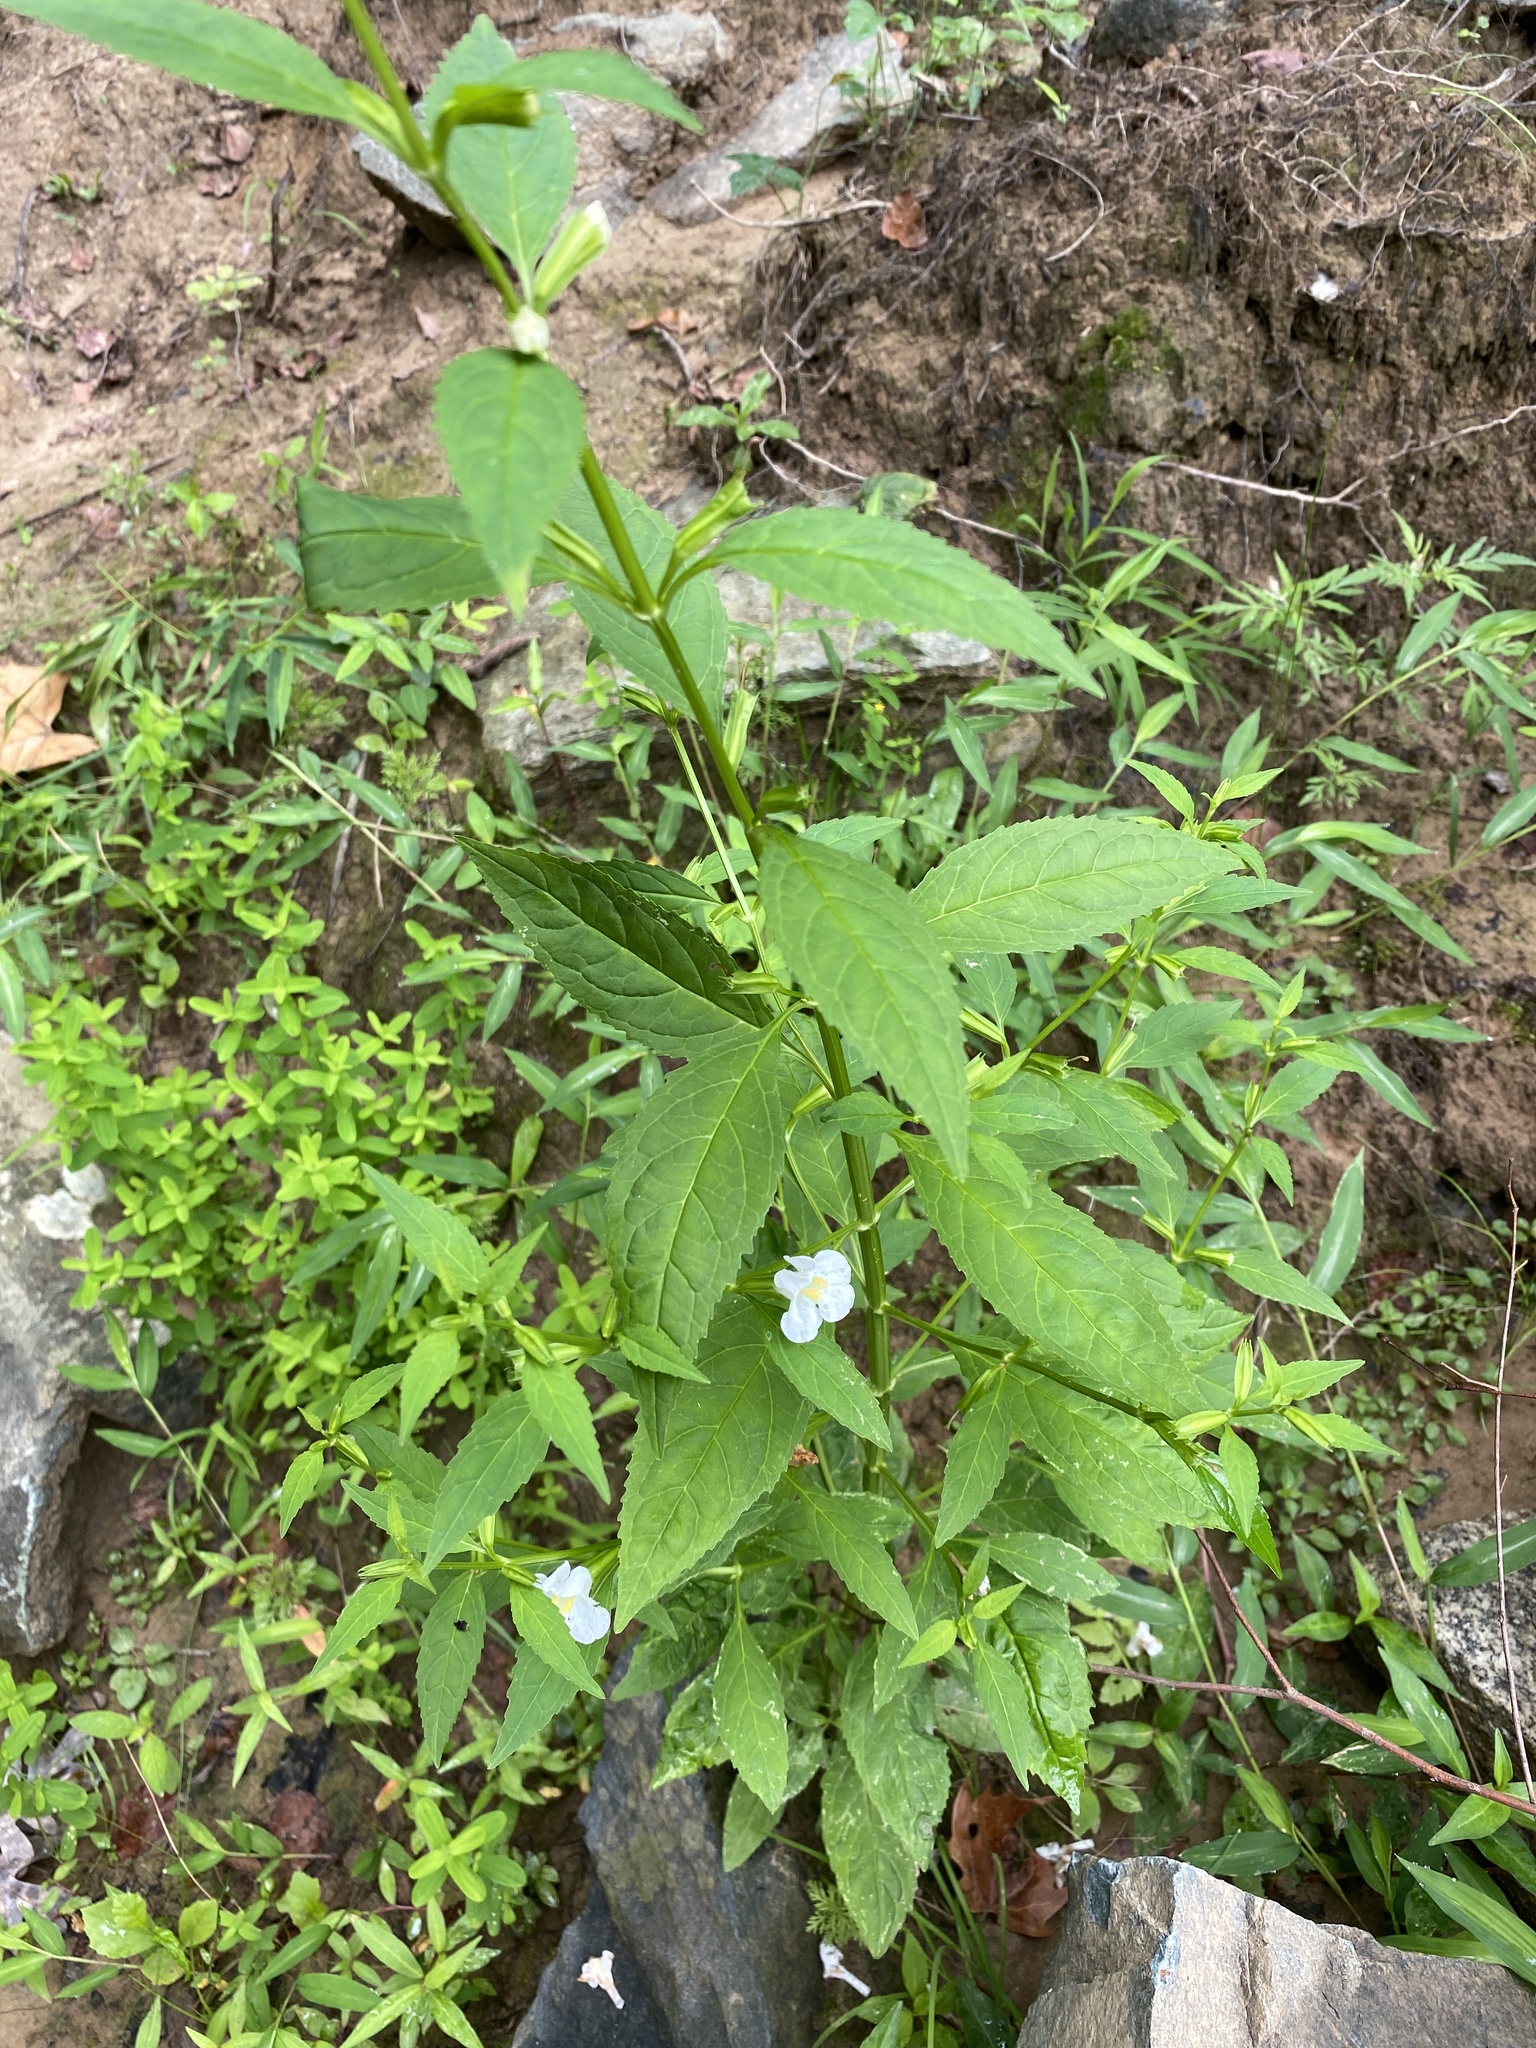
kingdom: Plantae
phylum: Tracheophyta
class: Magnoliopsida
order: Lamiales
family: Phrymaceae
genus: Mimulus
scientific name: Mimulus alatus
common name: Sharp-wing monkey-flower
